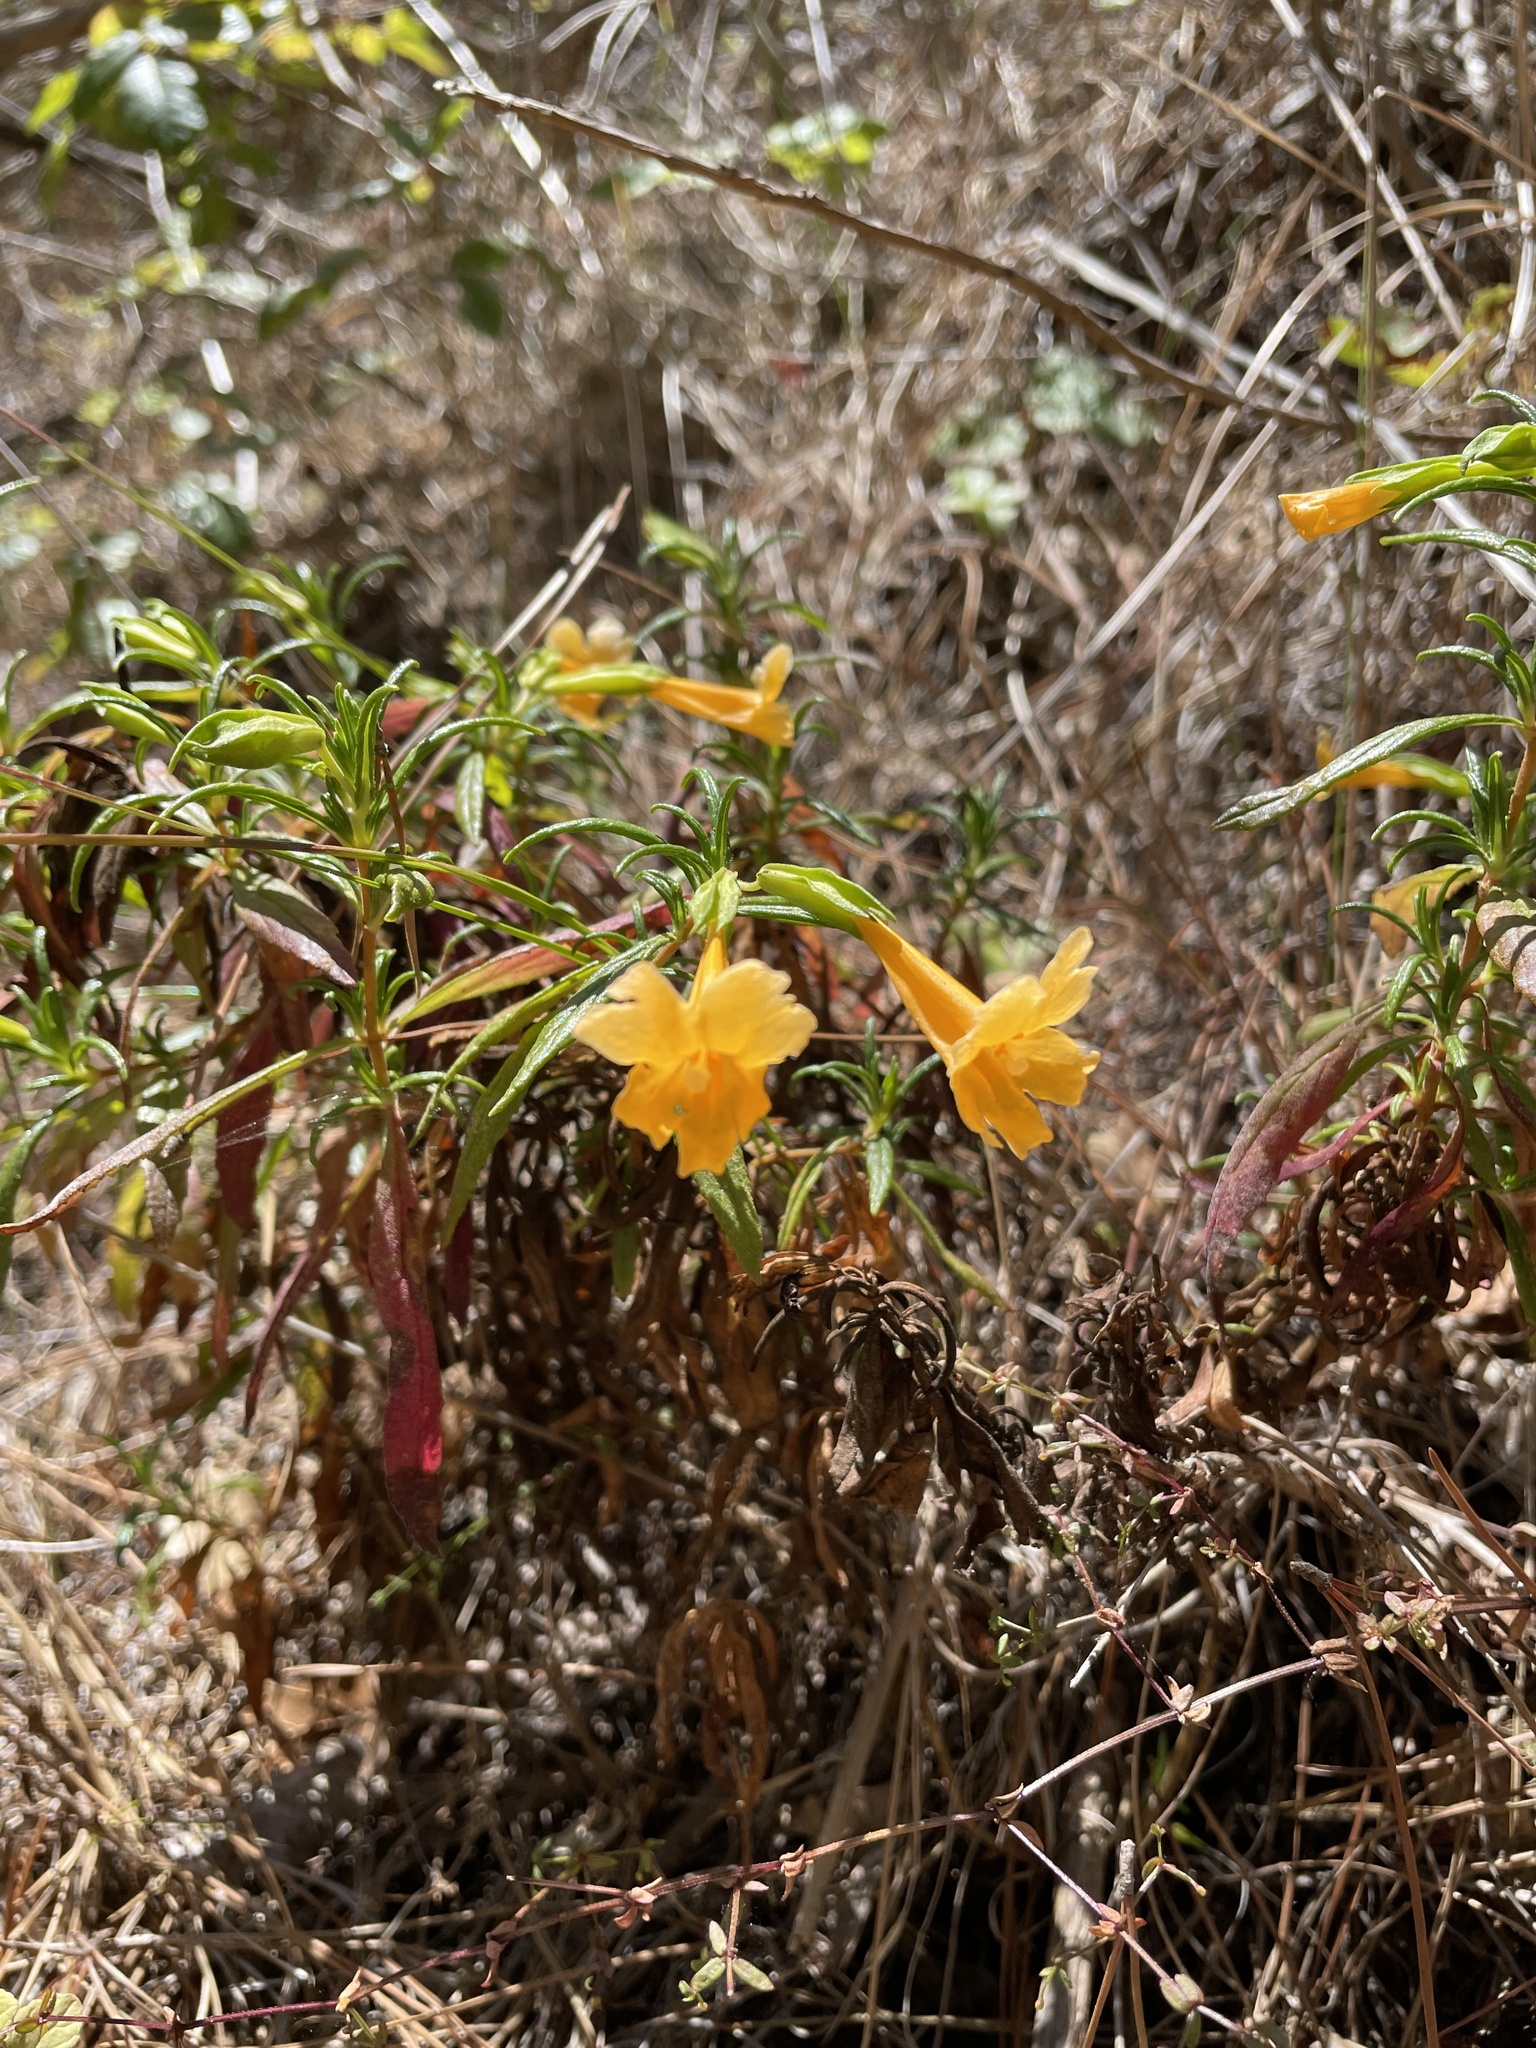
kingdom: Plantae
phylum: Tracheophyta
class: Magnoliopsida
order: Lamiales
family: Phrymaceae
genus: Diplacus
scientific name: Diplacus aurantiacus
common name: Bush monkey-flower
